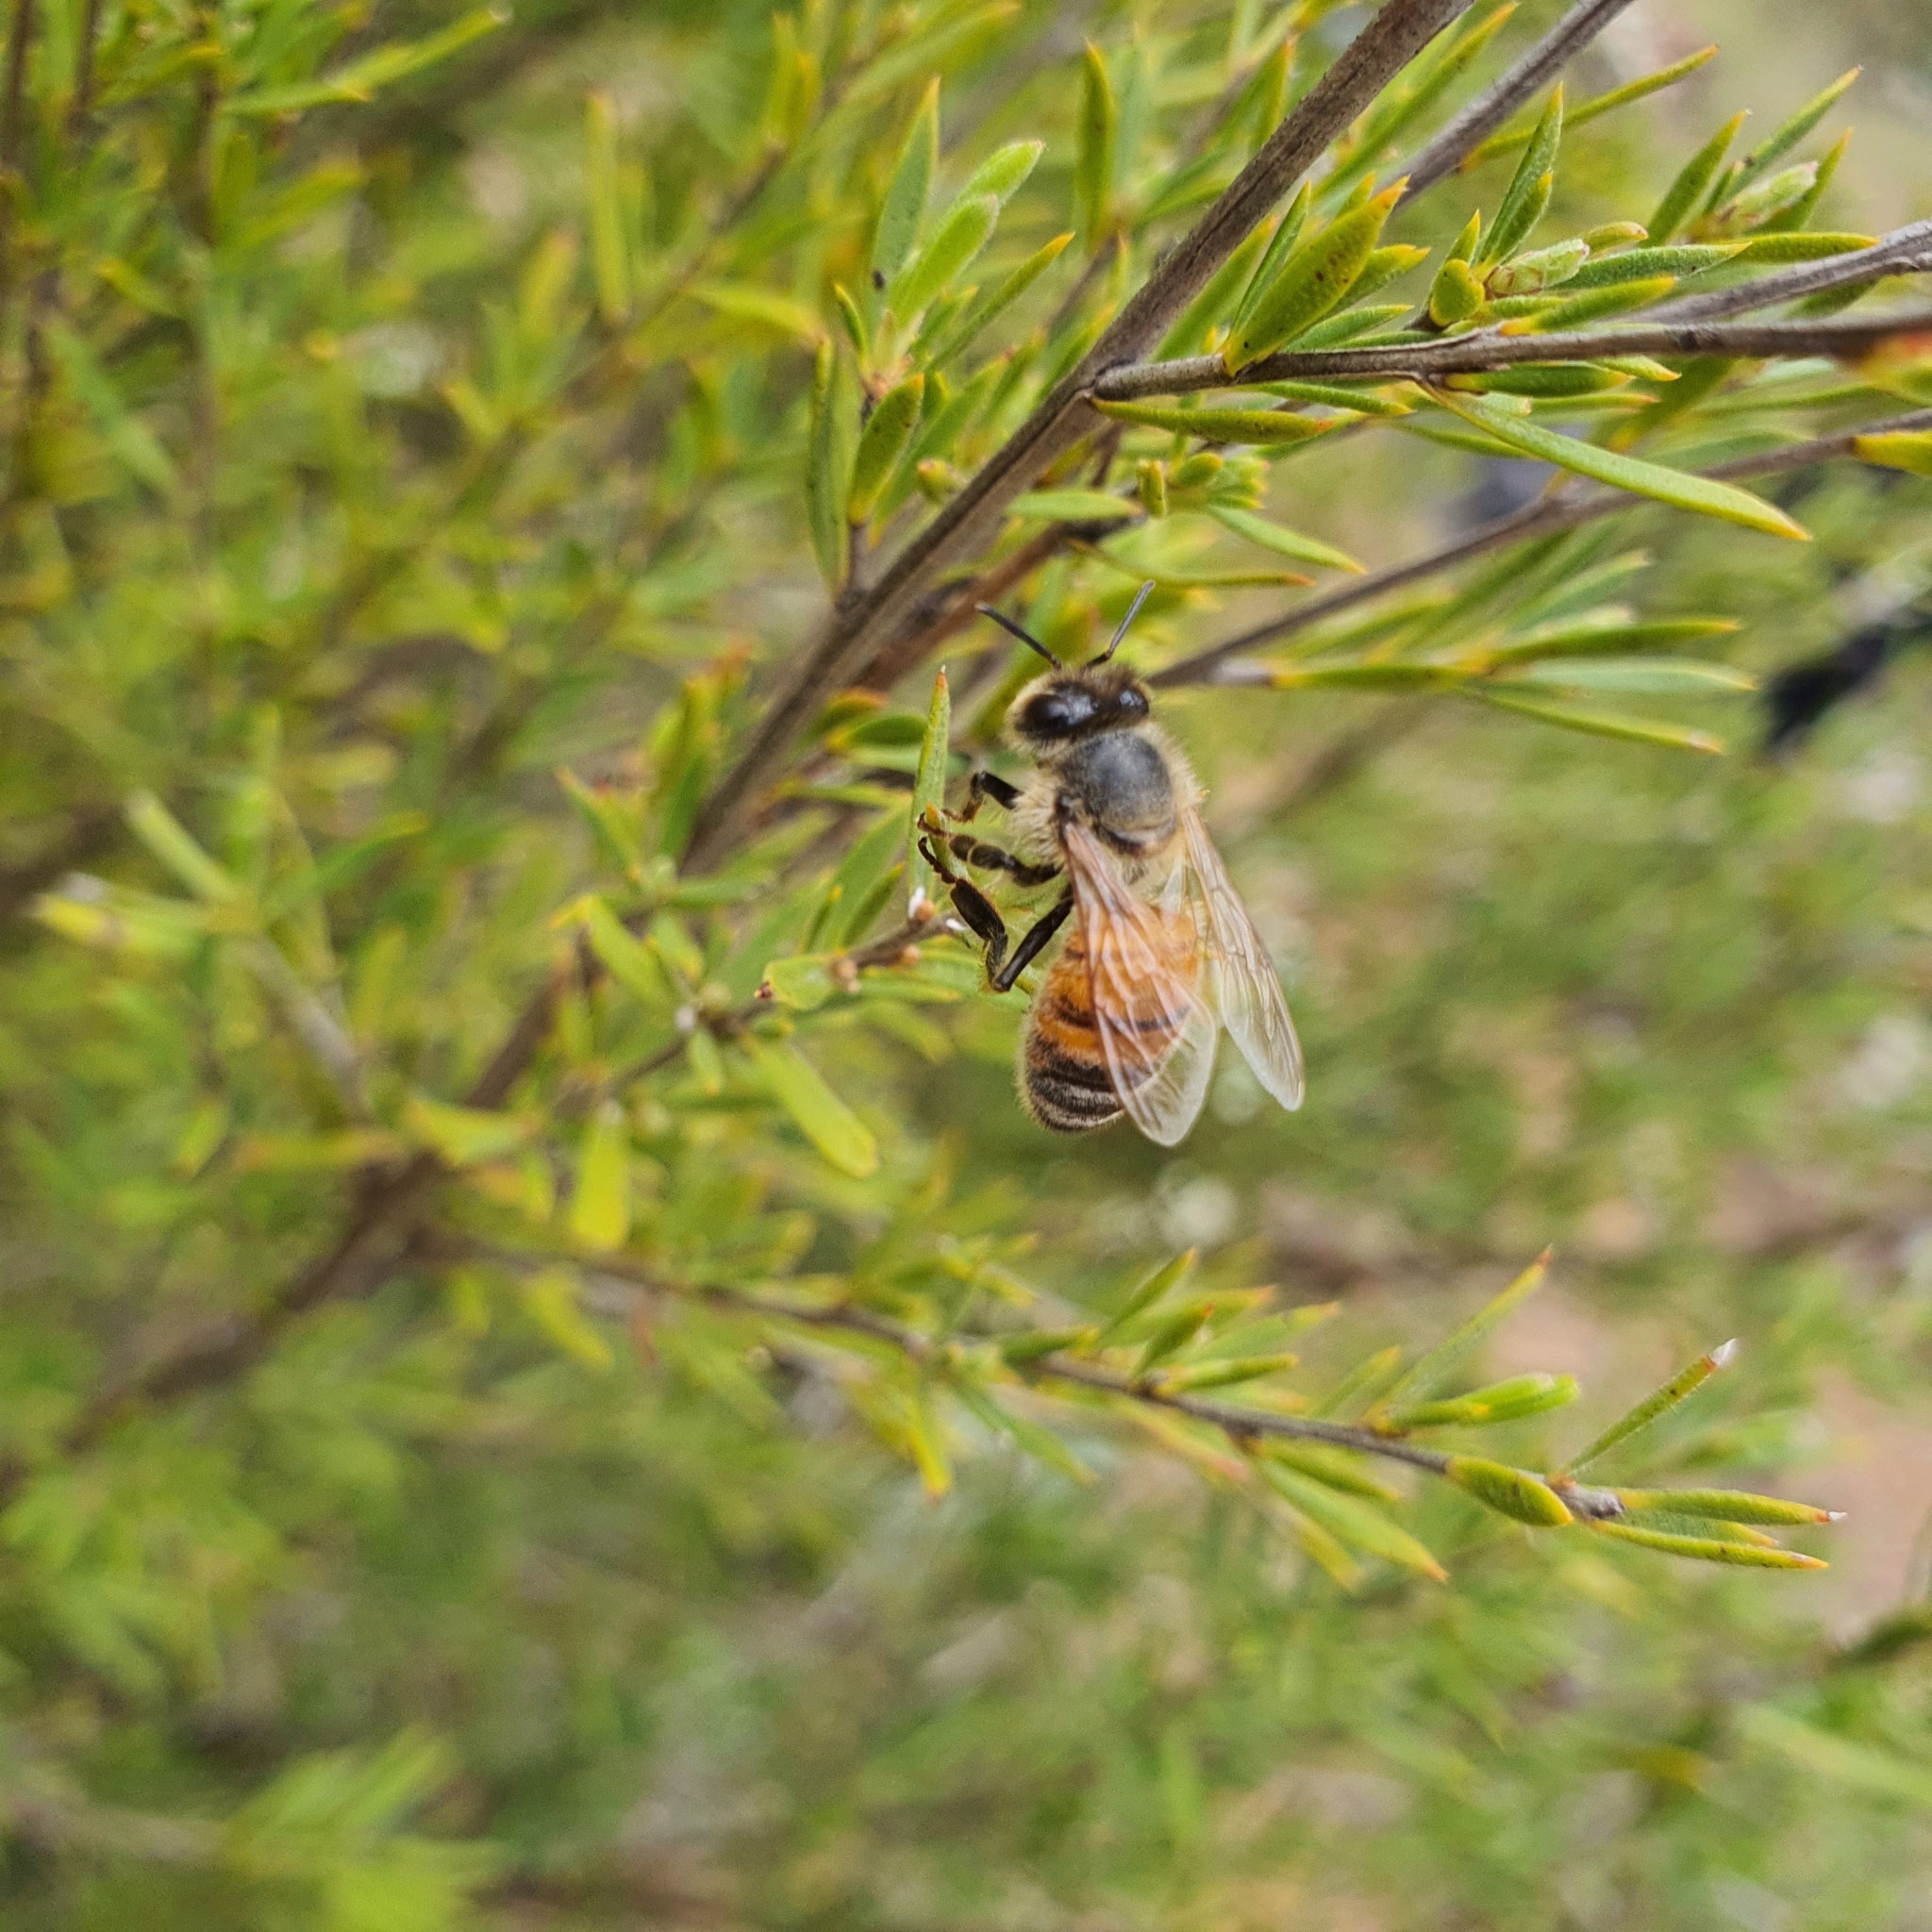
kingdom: Animalia
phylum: Arthropoda
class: Insecta
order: Hymenoptera
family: Apidae
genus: Apis
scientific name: Apis mellifera
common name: Honey bee
